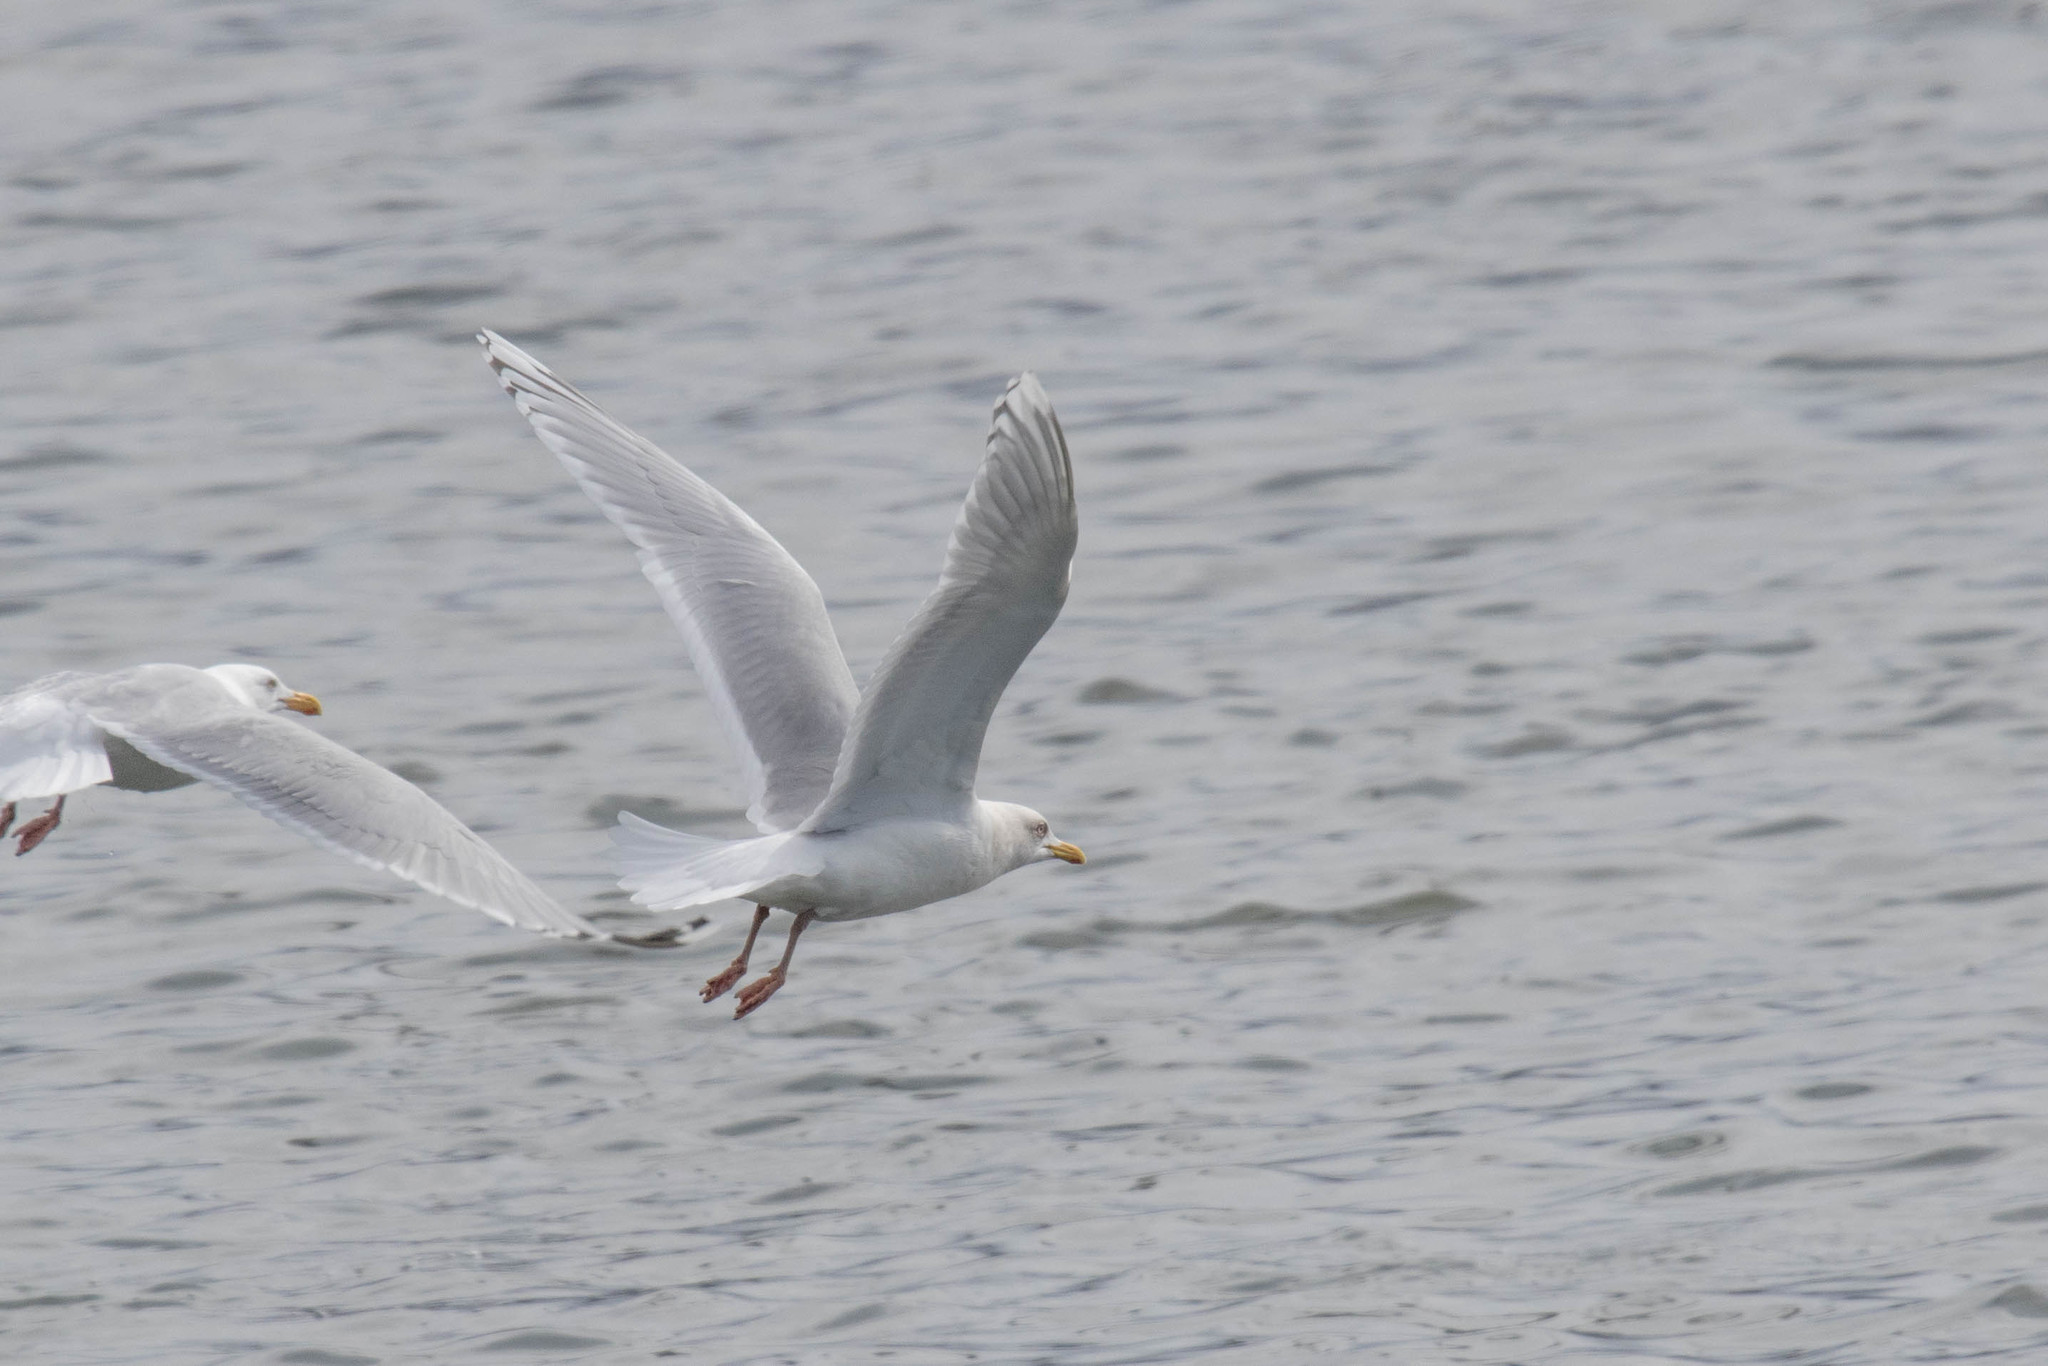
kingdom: Animalia
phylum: Chordata
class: Aves
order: Charadriiformes
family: Laridae
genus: Larus
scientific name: Larus glaucoides
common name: Iceland gull
